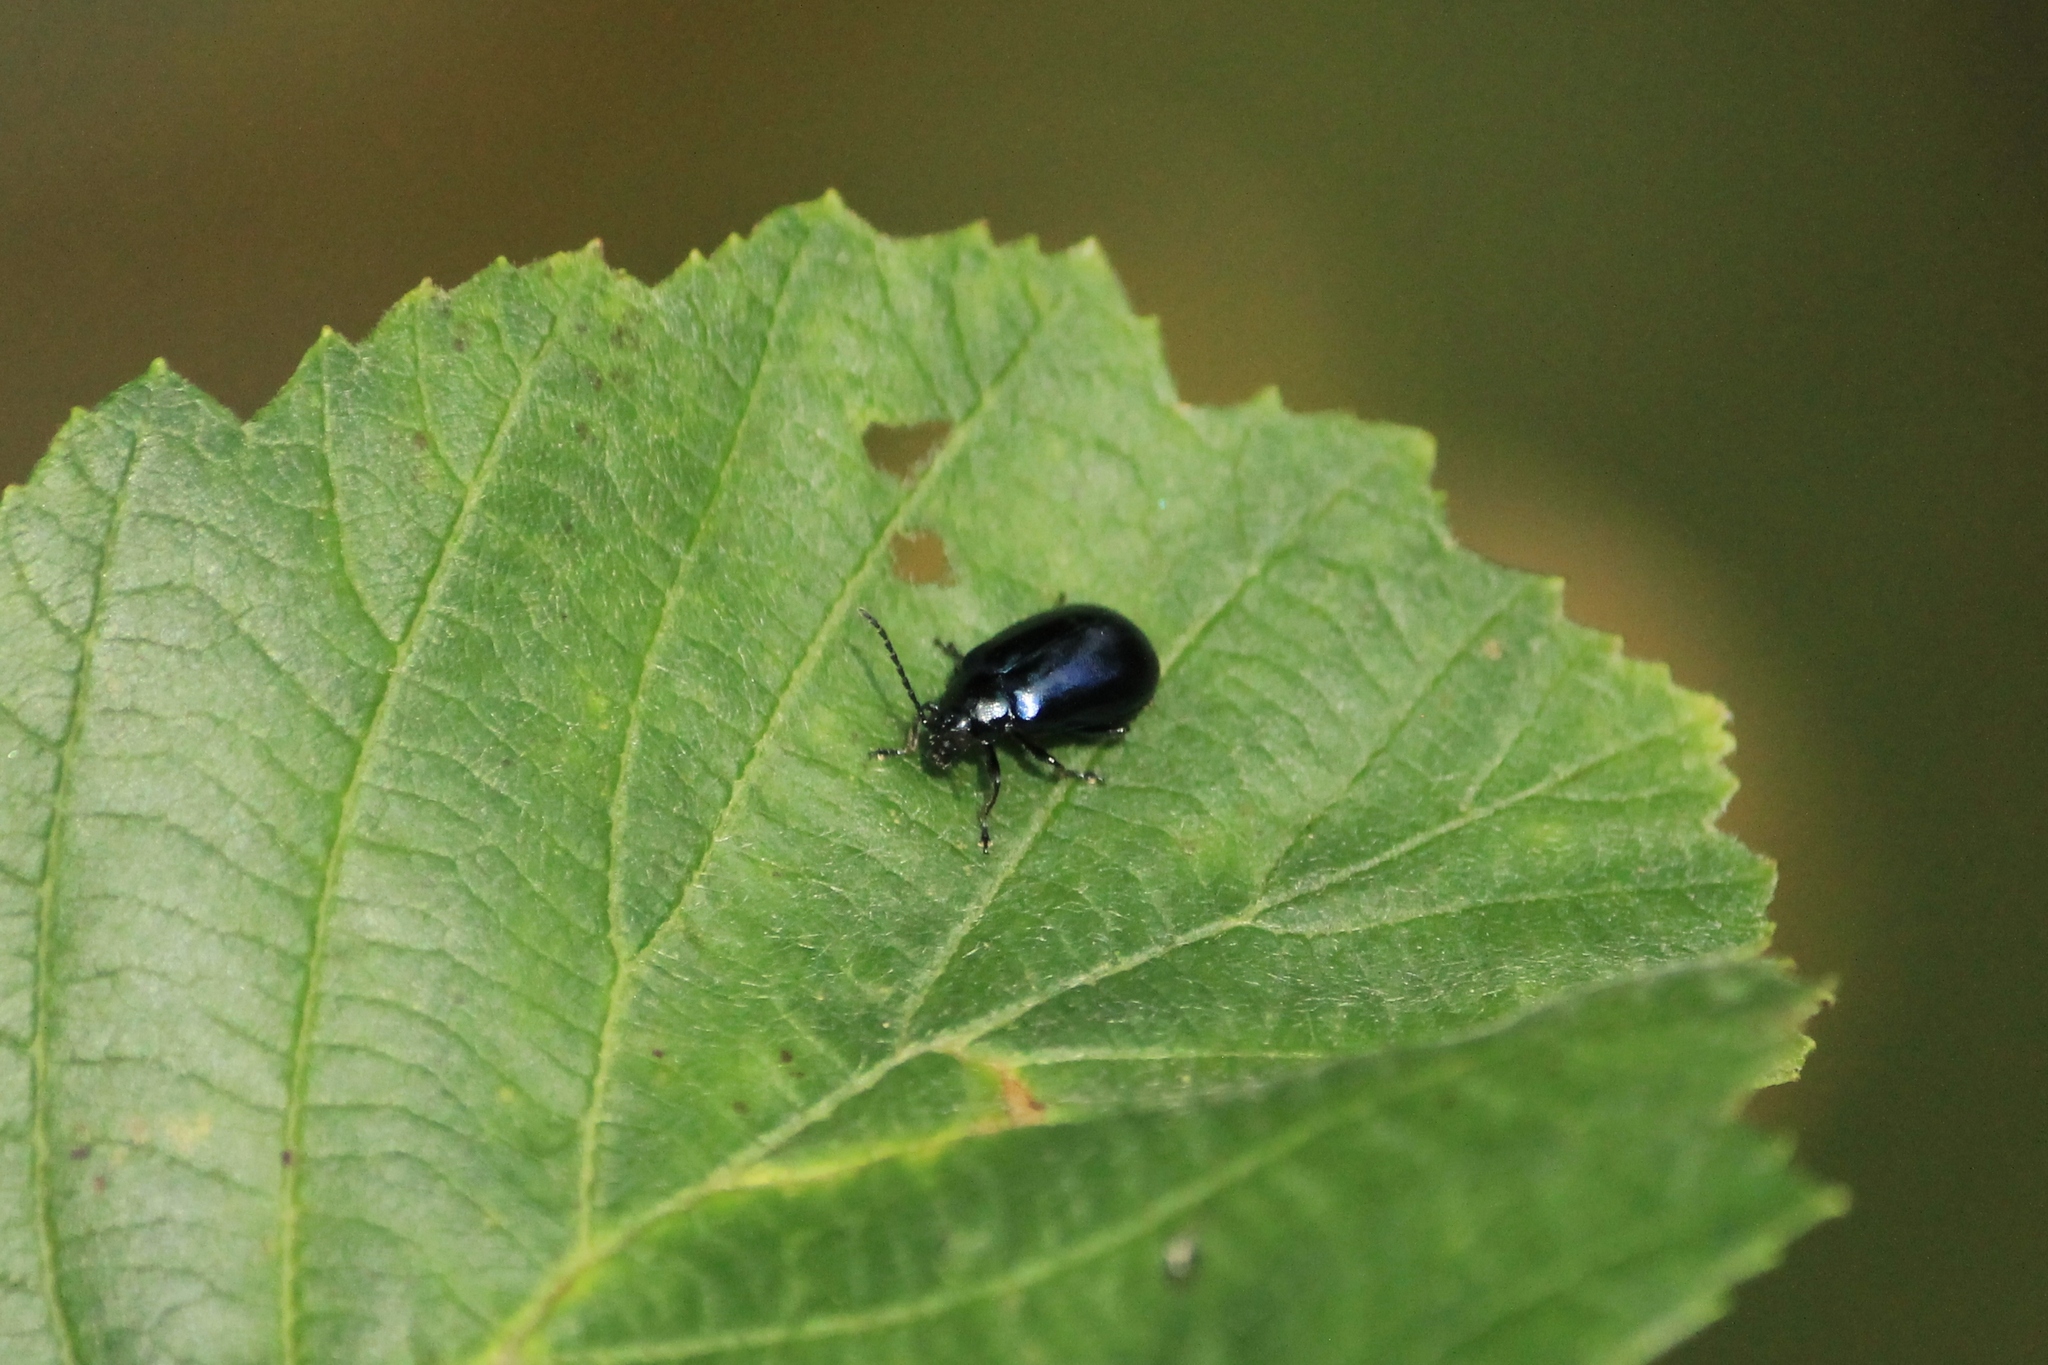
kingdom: Animalia
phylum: Arthropoda
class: Insecta
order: Coleoptera
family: Chrysomelidae
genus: Agelastica
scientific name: Agelastica alni
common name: Alder leaf beetle
